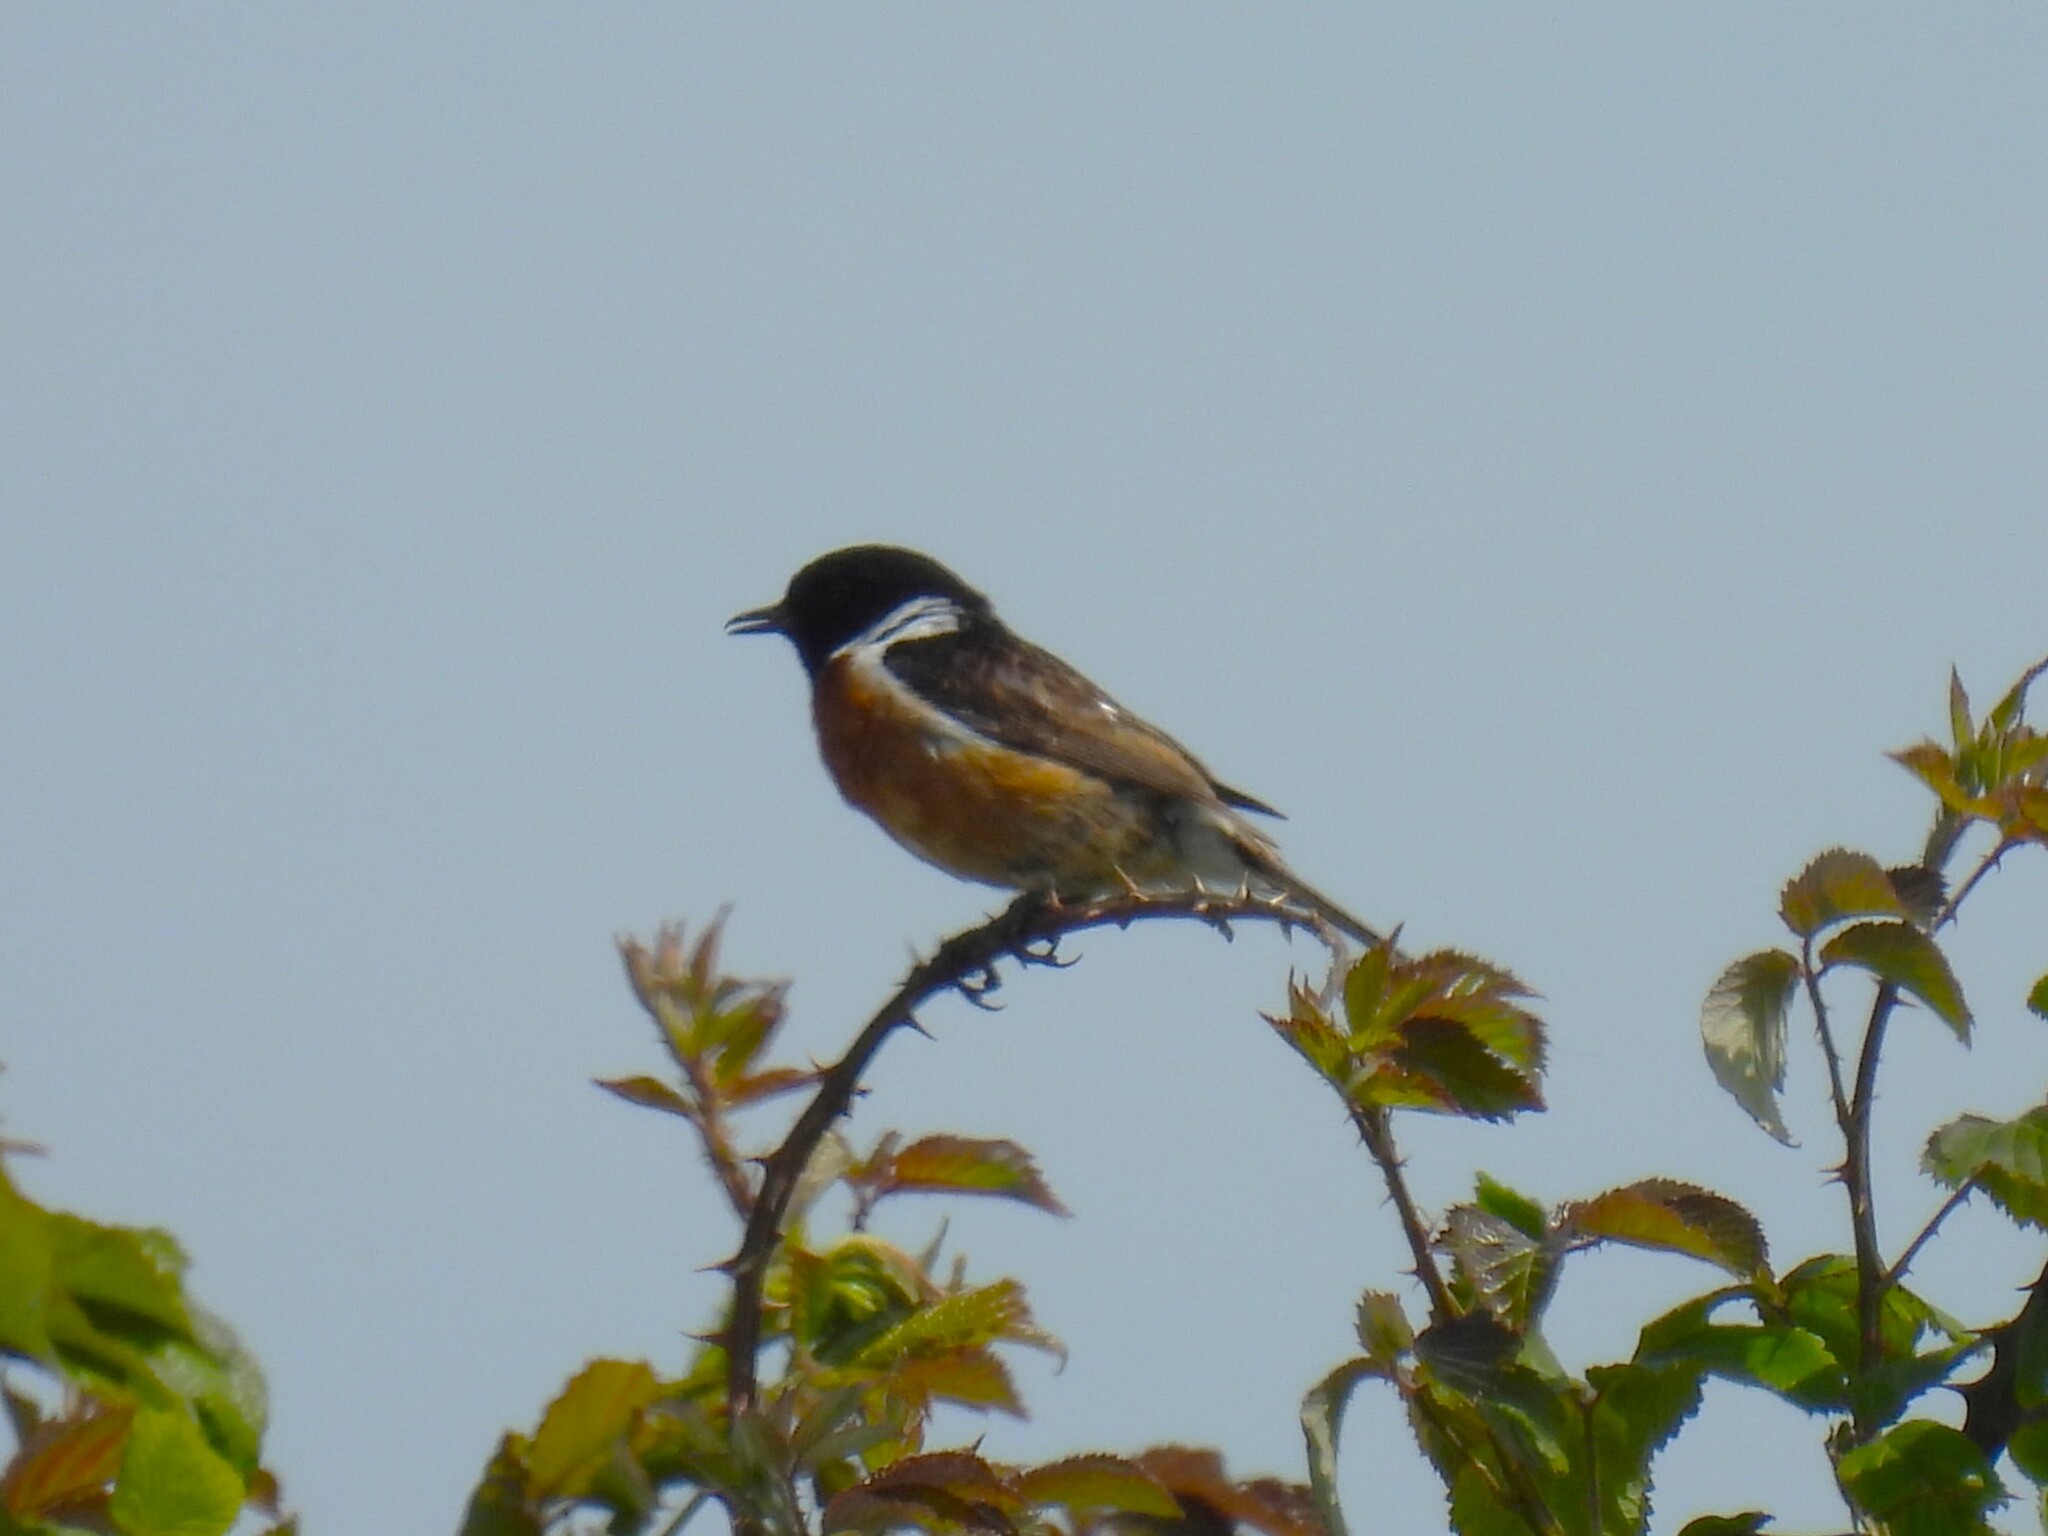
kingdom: Animalia
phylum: Chordata
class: Aves
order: Passeriformes
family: Muscicapidae
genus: Saxicola
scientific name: Saxicola rubicola
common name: European stonechat
